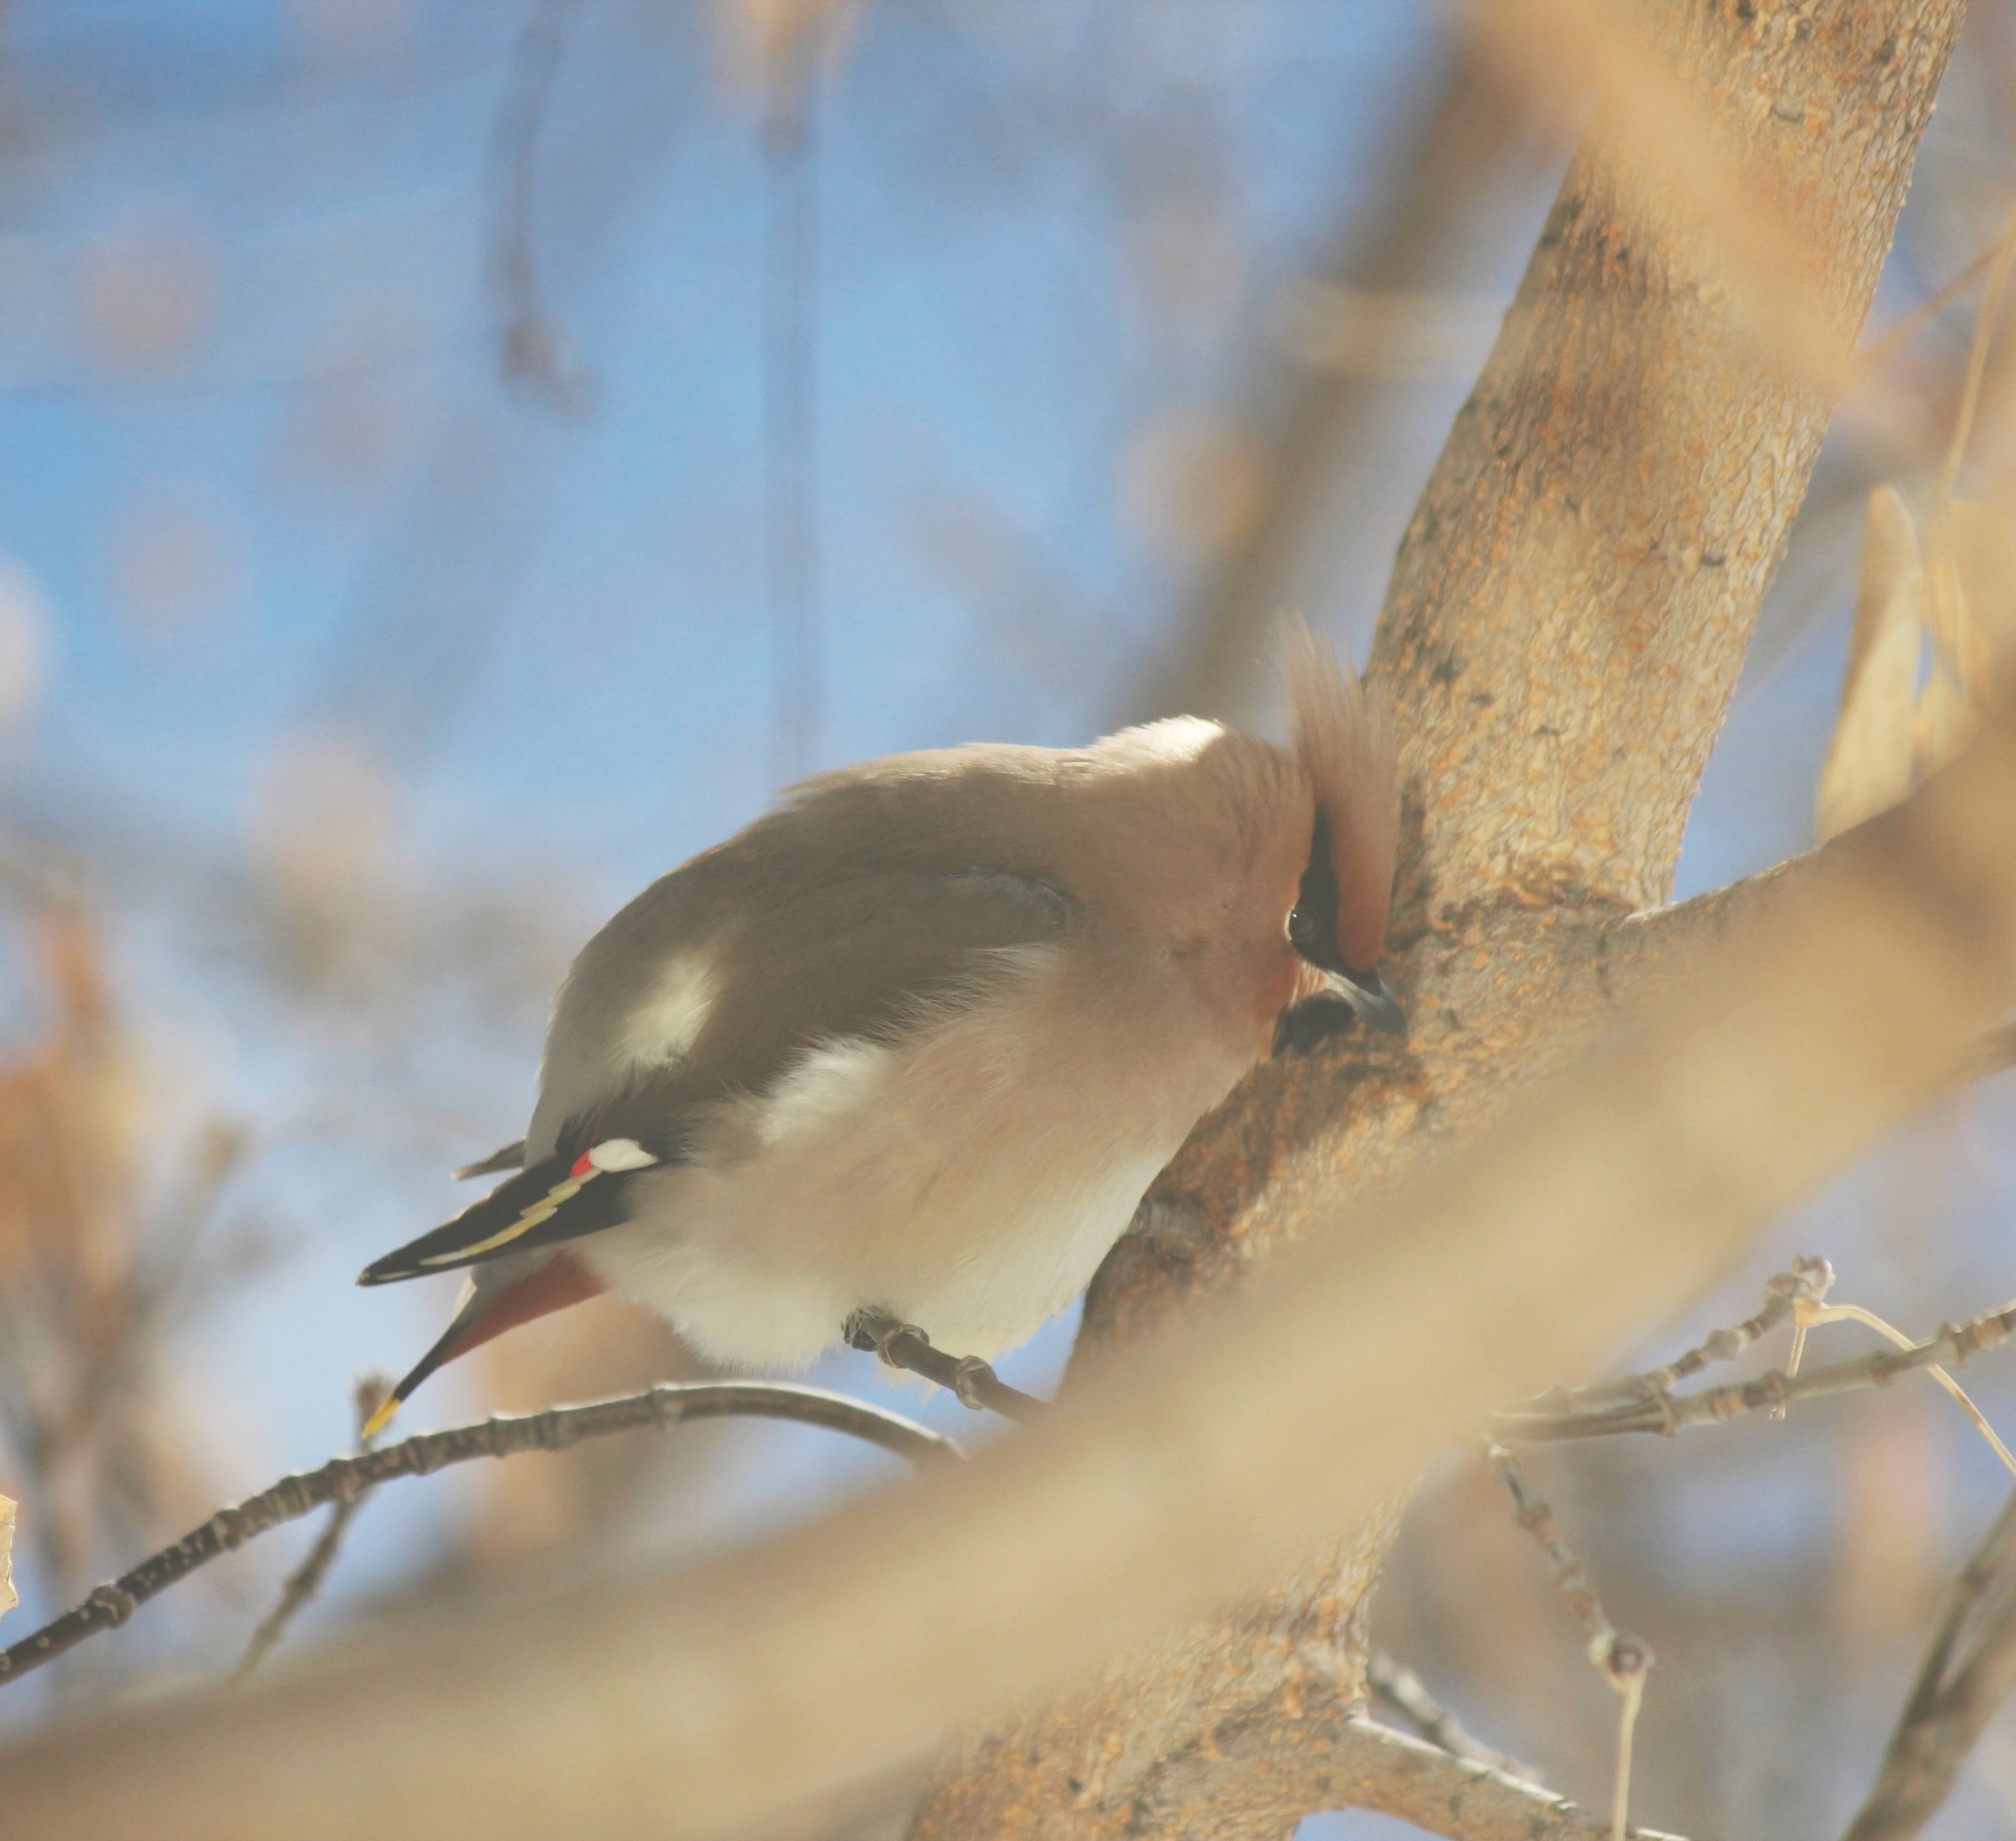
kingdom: Animalia
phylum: Chordata
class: Aves
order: Passeriformes
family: Bombycillidae
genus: Bombycilla
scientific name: Bombycilla garrulus
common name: Bohemian waxwing
